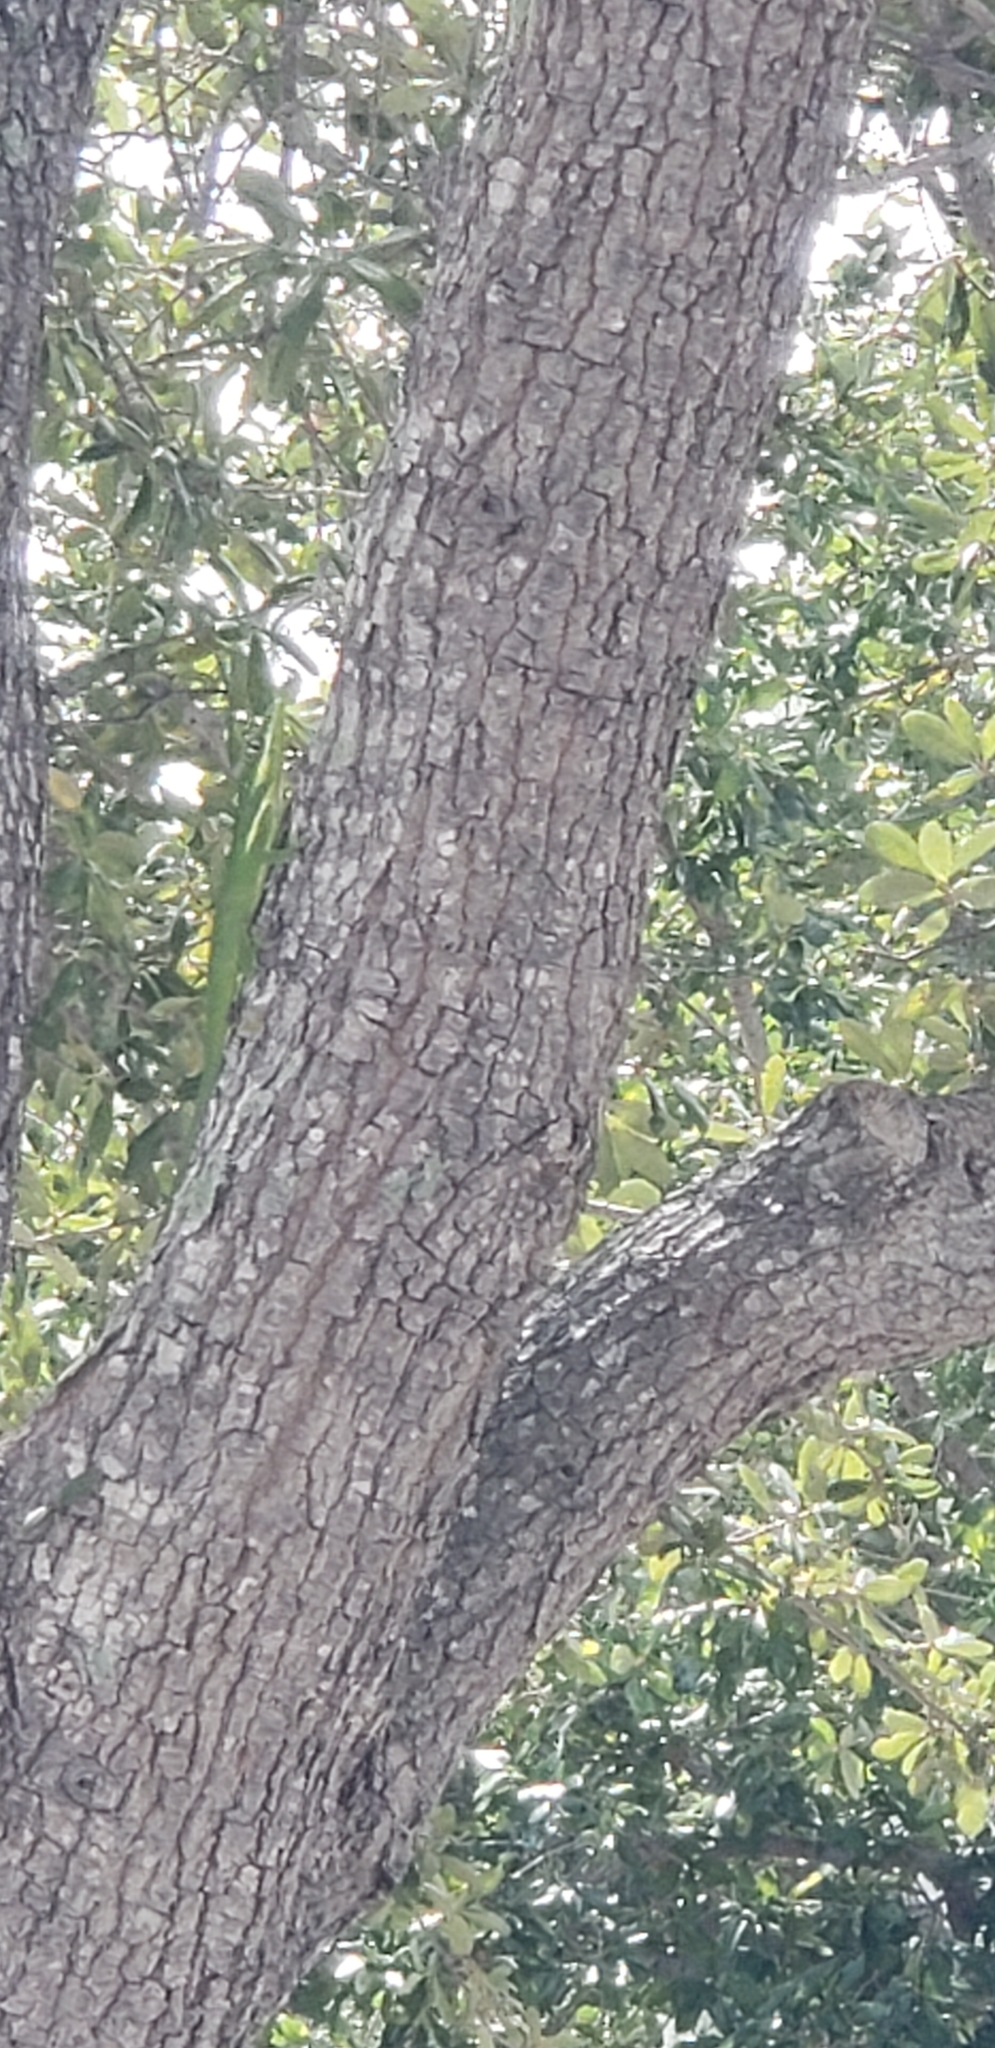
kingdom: Animalia
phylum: Chordata
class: Squamata
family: Dactyloidae
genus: Anolis
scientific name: Anolis equestris
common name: Knight anole
